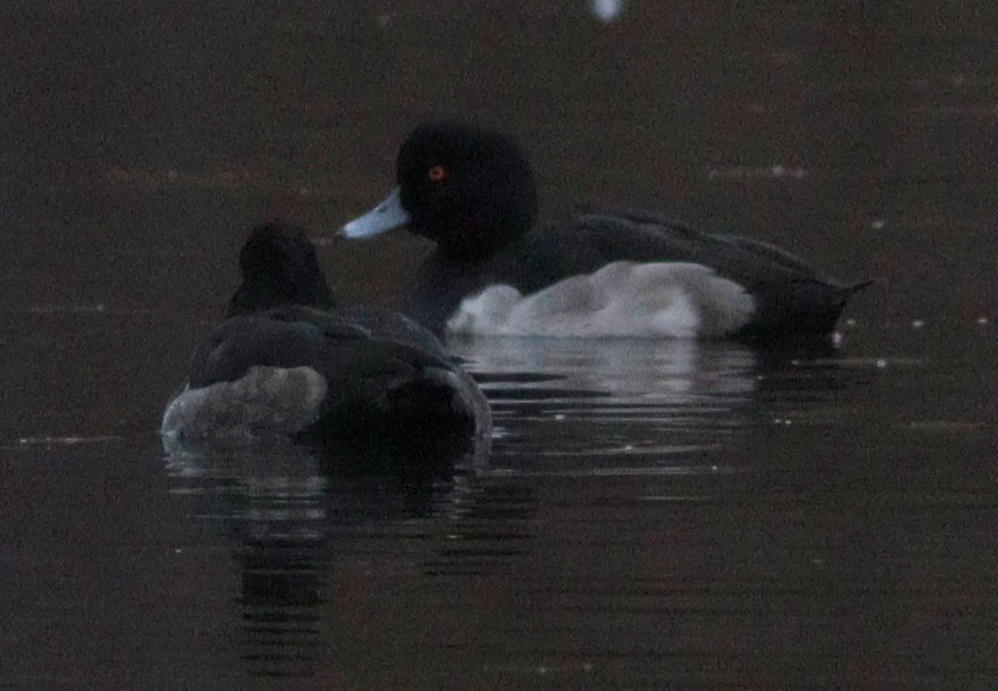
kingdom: Animalia
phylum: Chordata
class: Aves
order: Anseriformes
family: Anatidae
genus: Aythya
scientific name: Aythya fuligula
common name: Tufted duck
